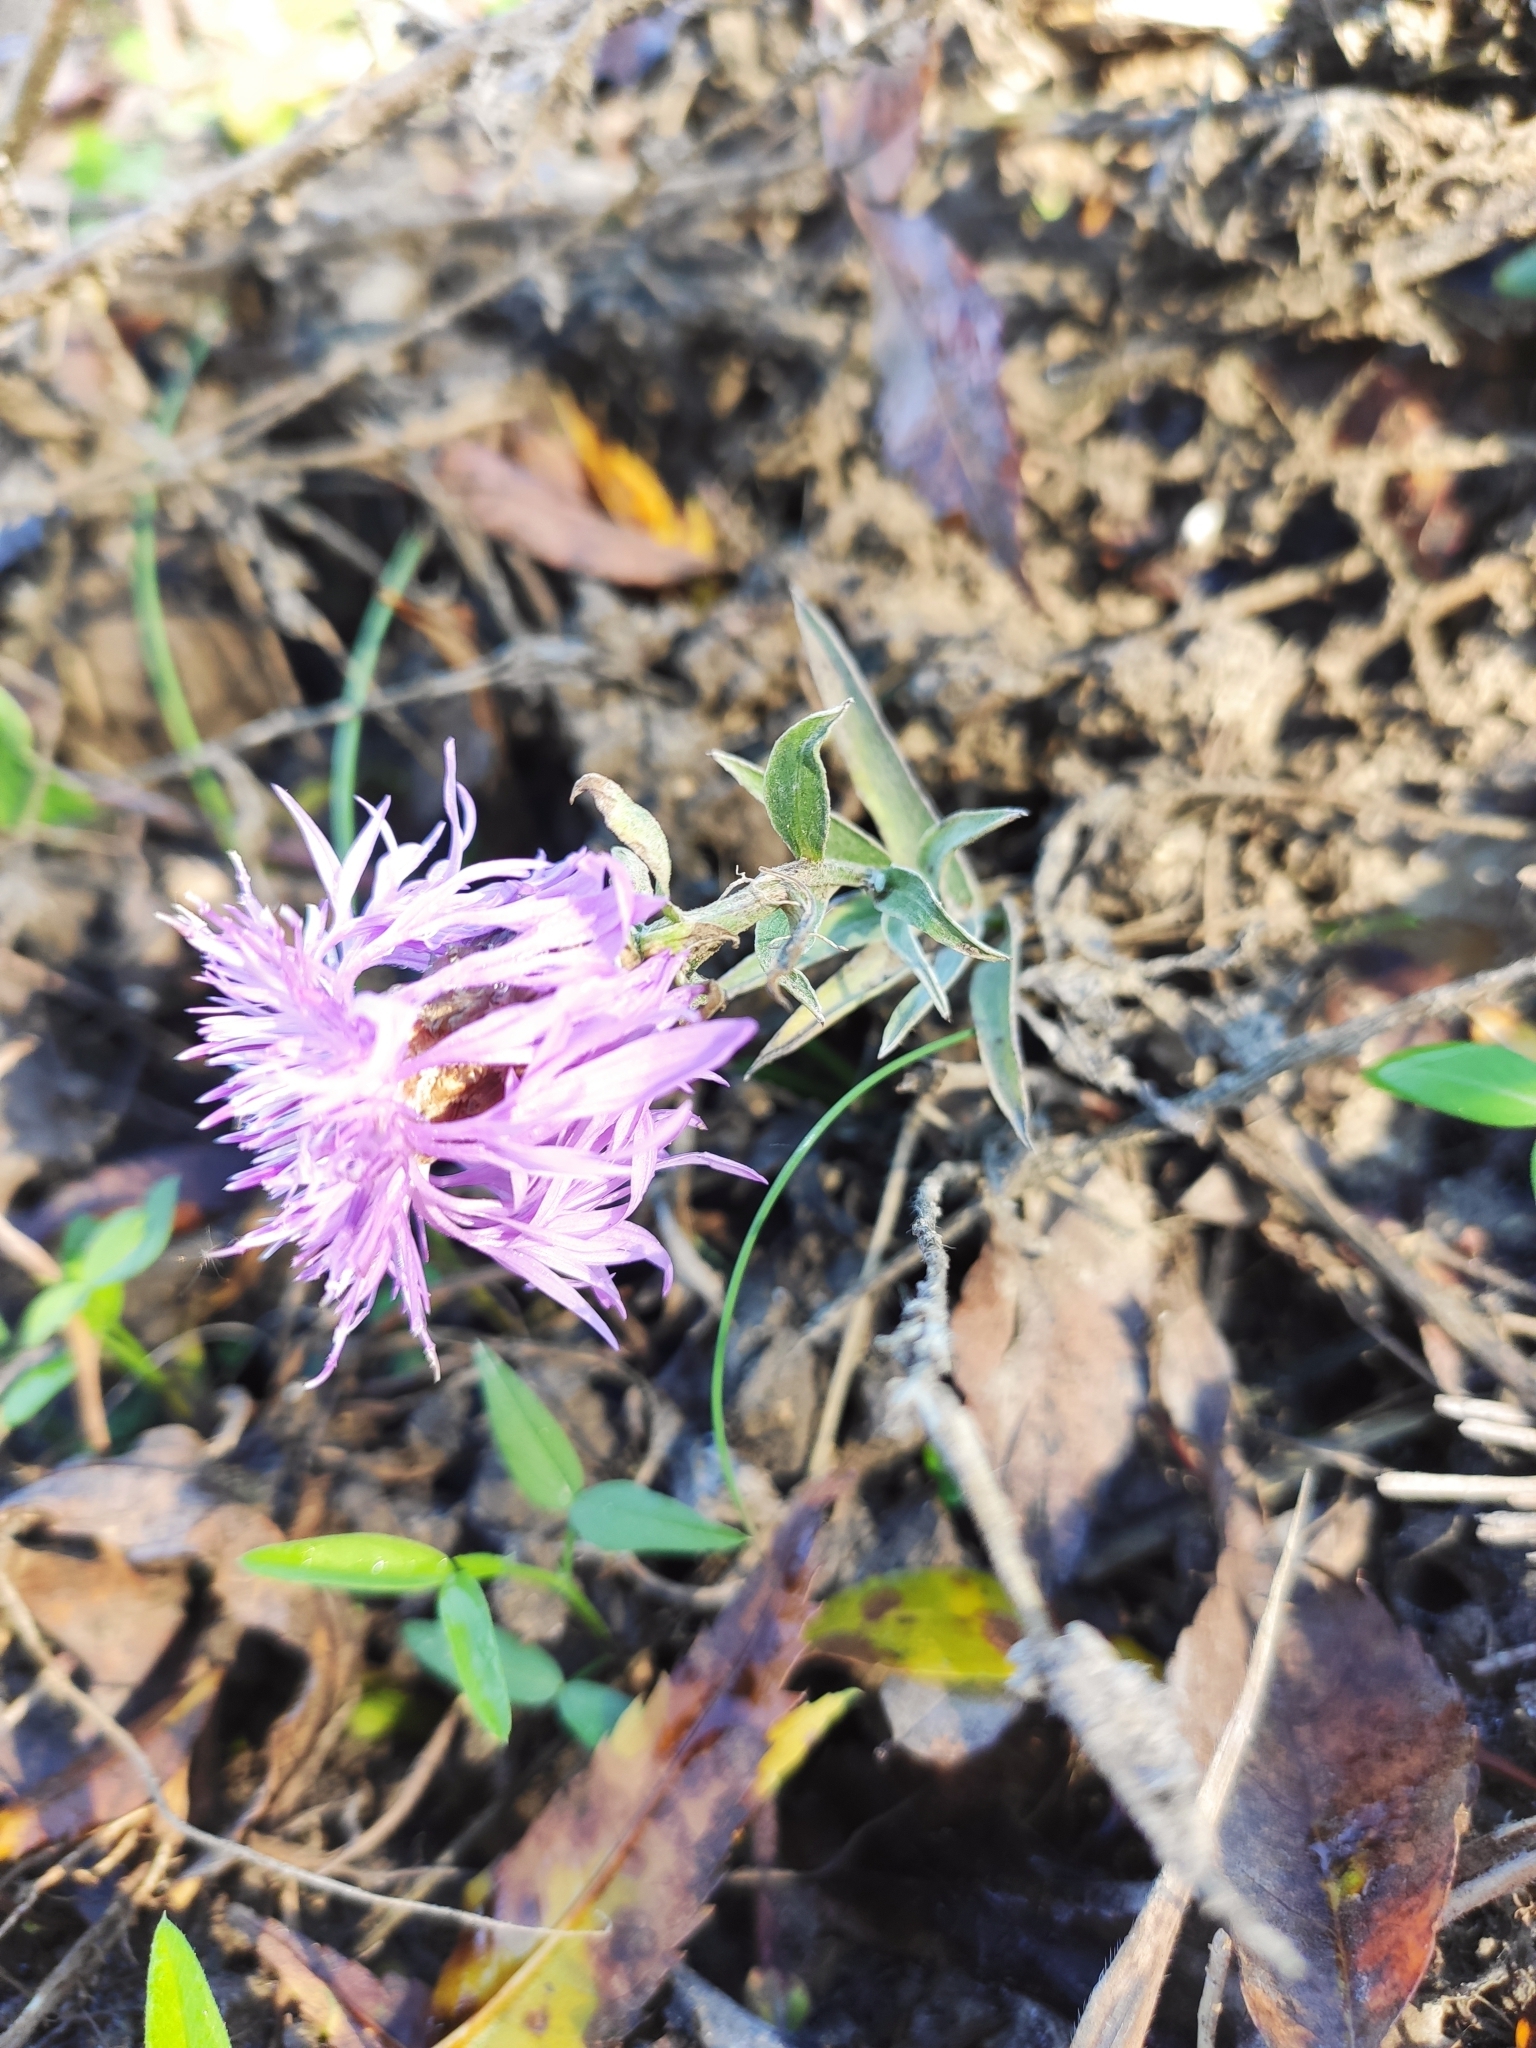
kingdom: Plantae
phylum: Tracheophyta
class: Magnoliopsida
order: Asterales
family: Asteraceae
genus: Centaurea
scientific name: Centaurea jacea
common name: Brown knapweed
